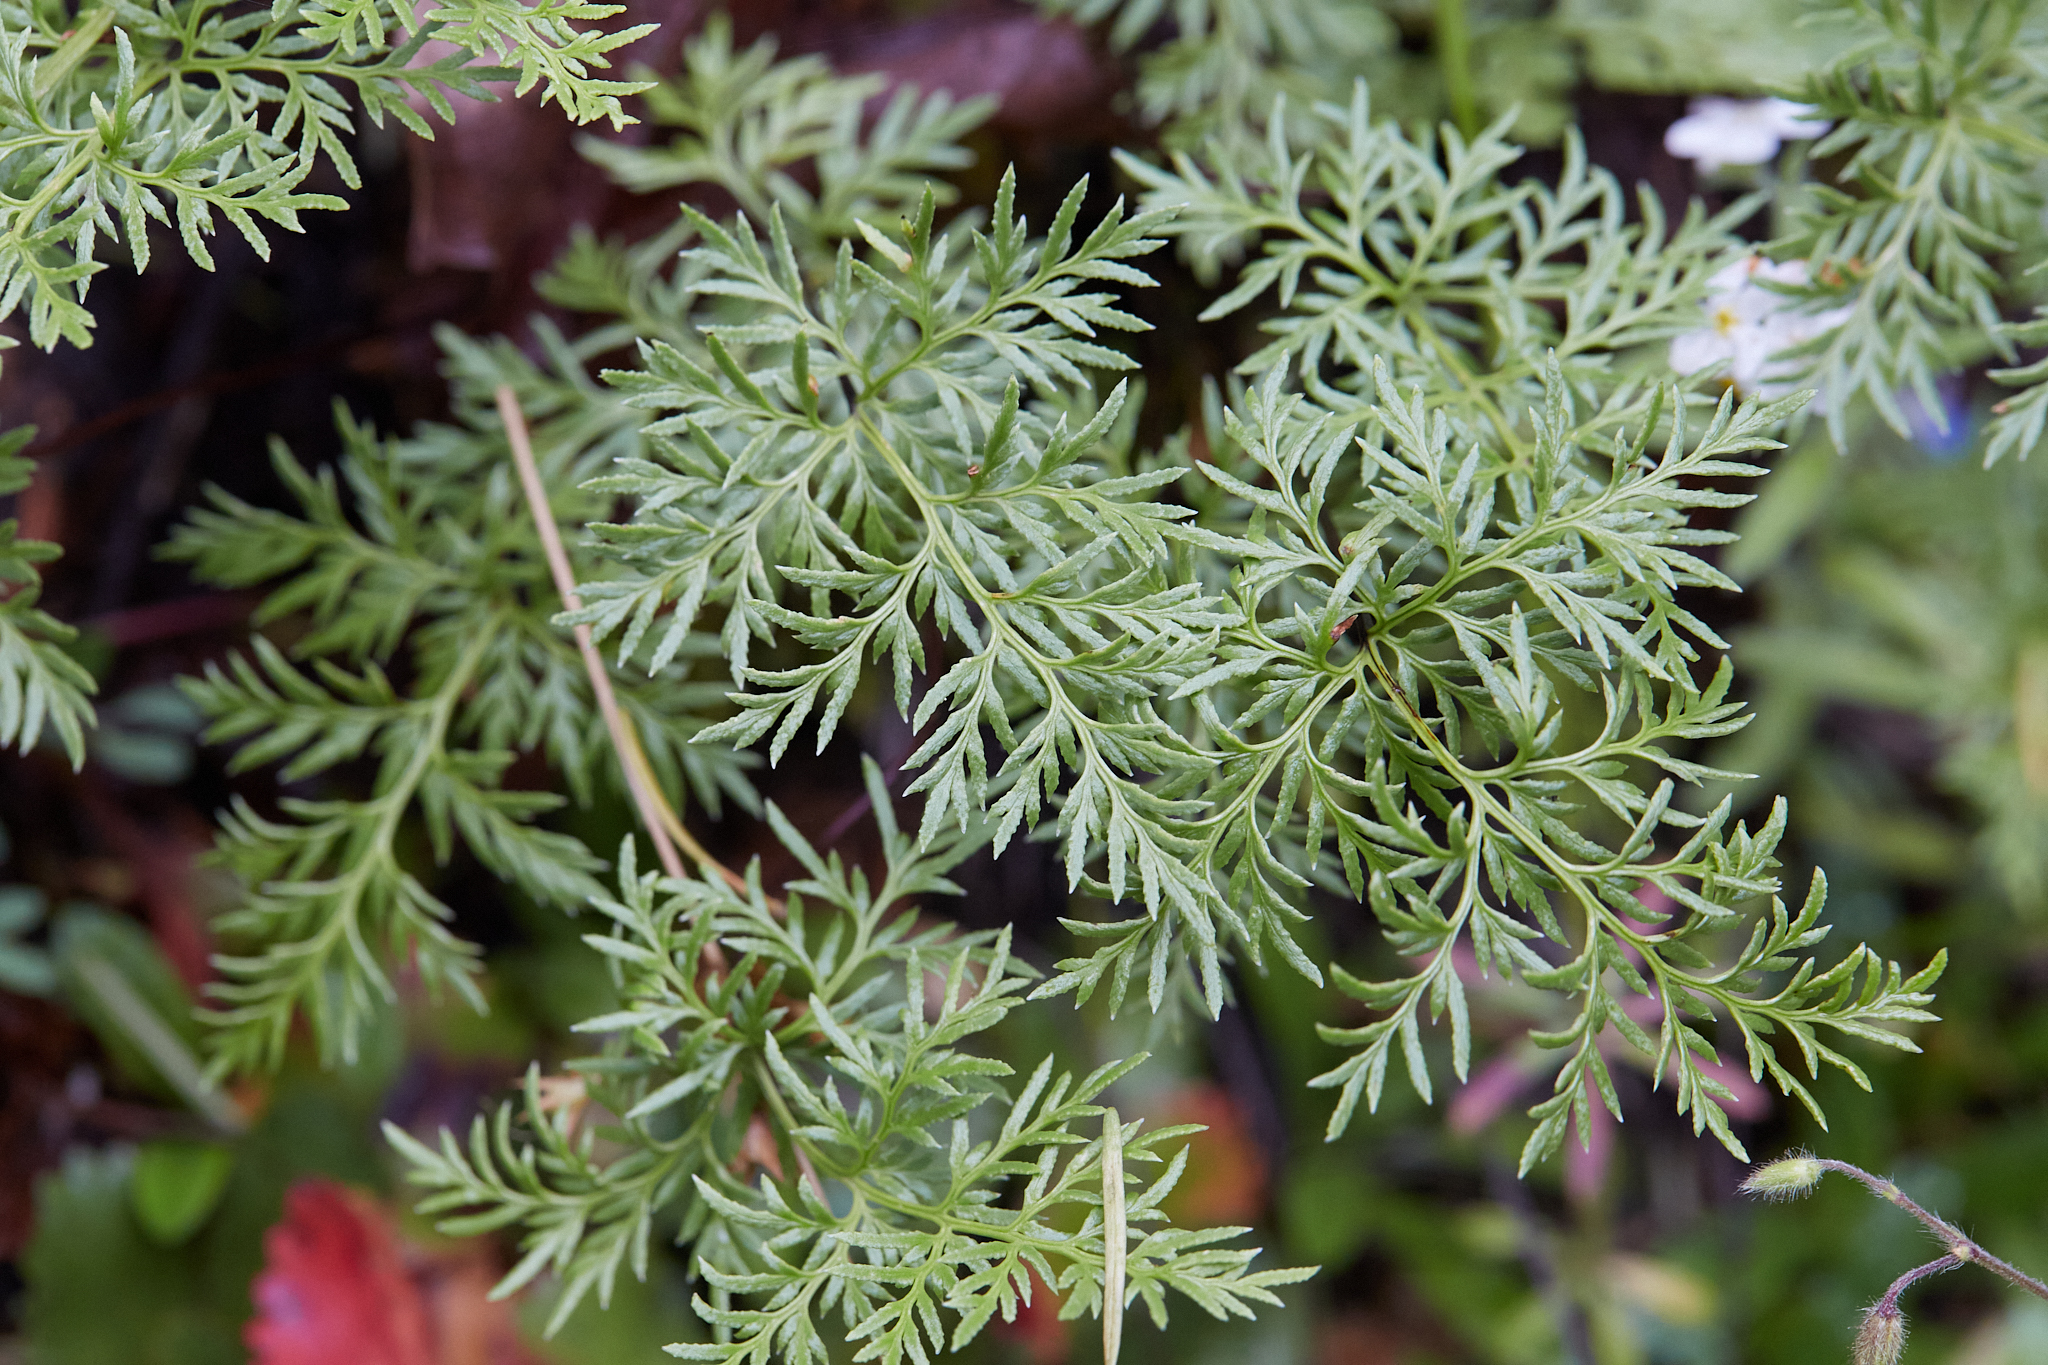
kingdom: Plantae
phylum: Tracheophyta
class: Polypodiopsida
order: Polypodiales
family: Pteridaceae
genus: Aspidotis
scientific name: Aspidotis densa
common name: Indian's dream
